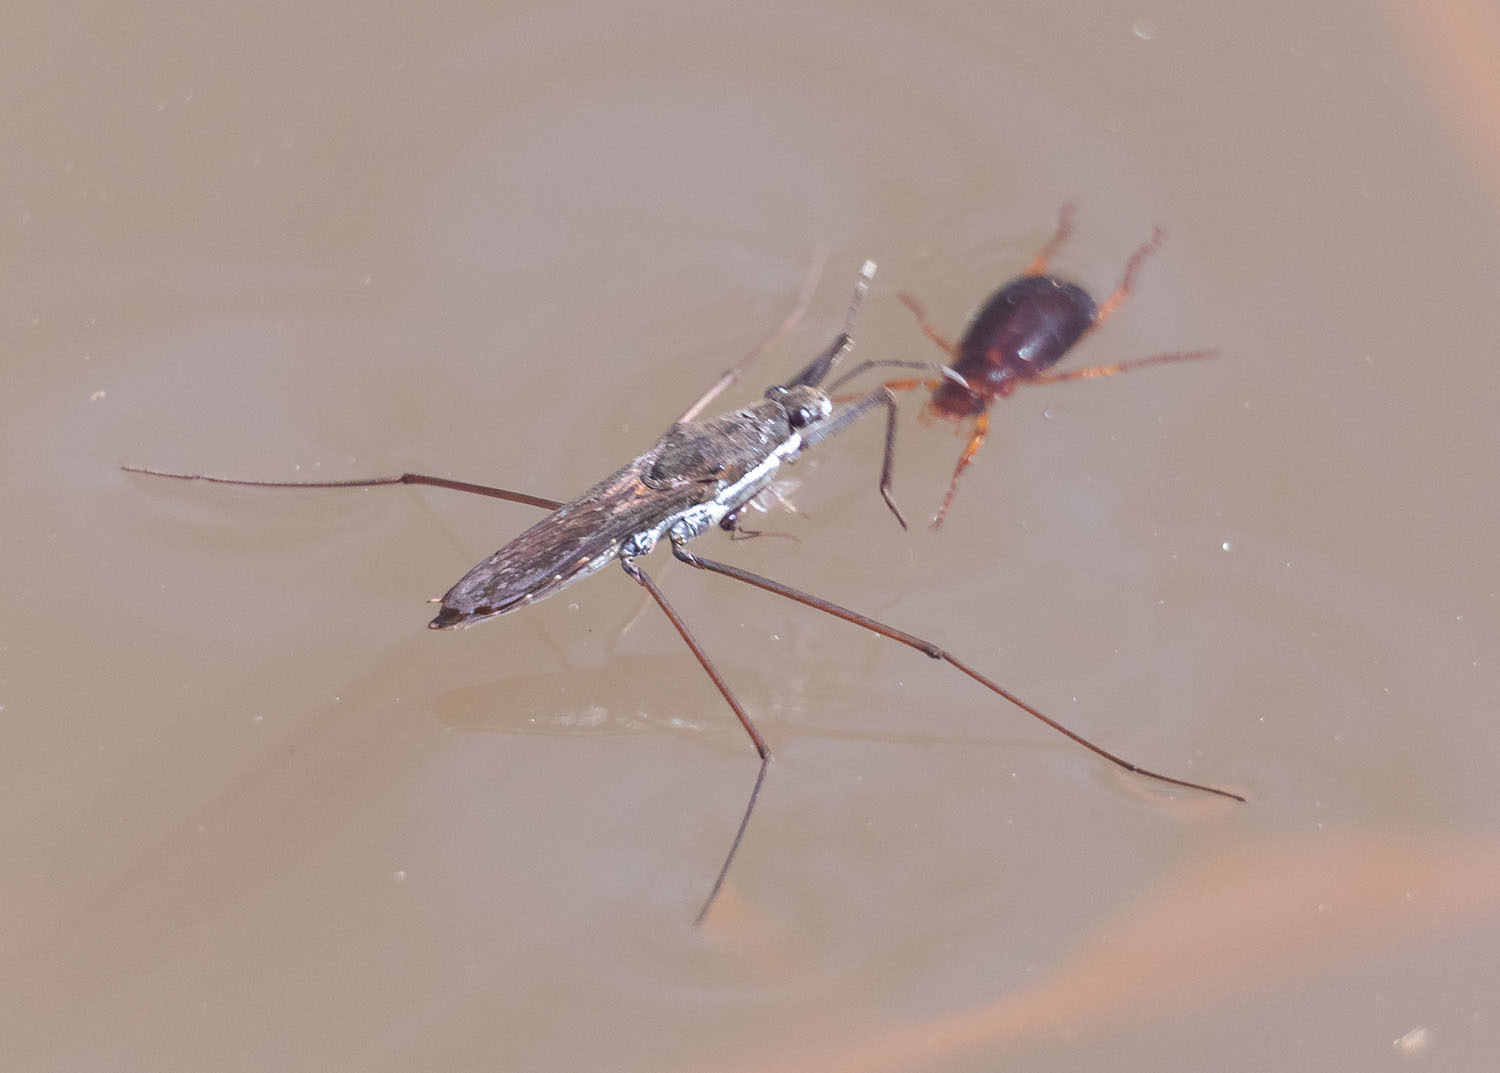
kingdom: Animalia
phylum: Arthropoda
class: Insecta
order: Hemiptera
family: Gerridae
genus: Aquarius
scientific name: Aquarius remigis
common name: Common water strider
